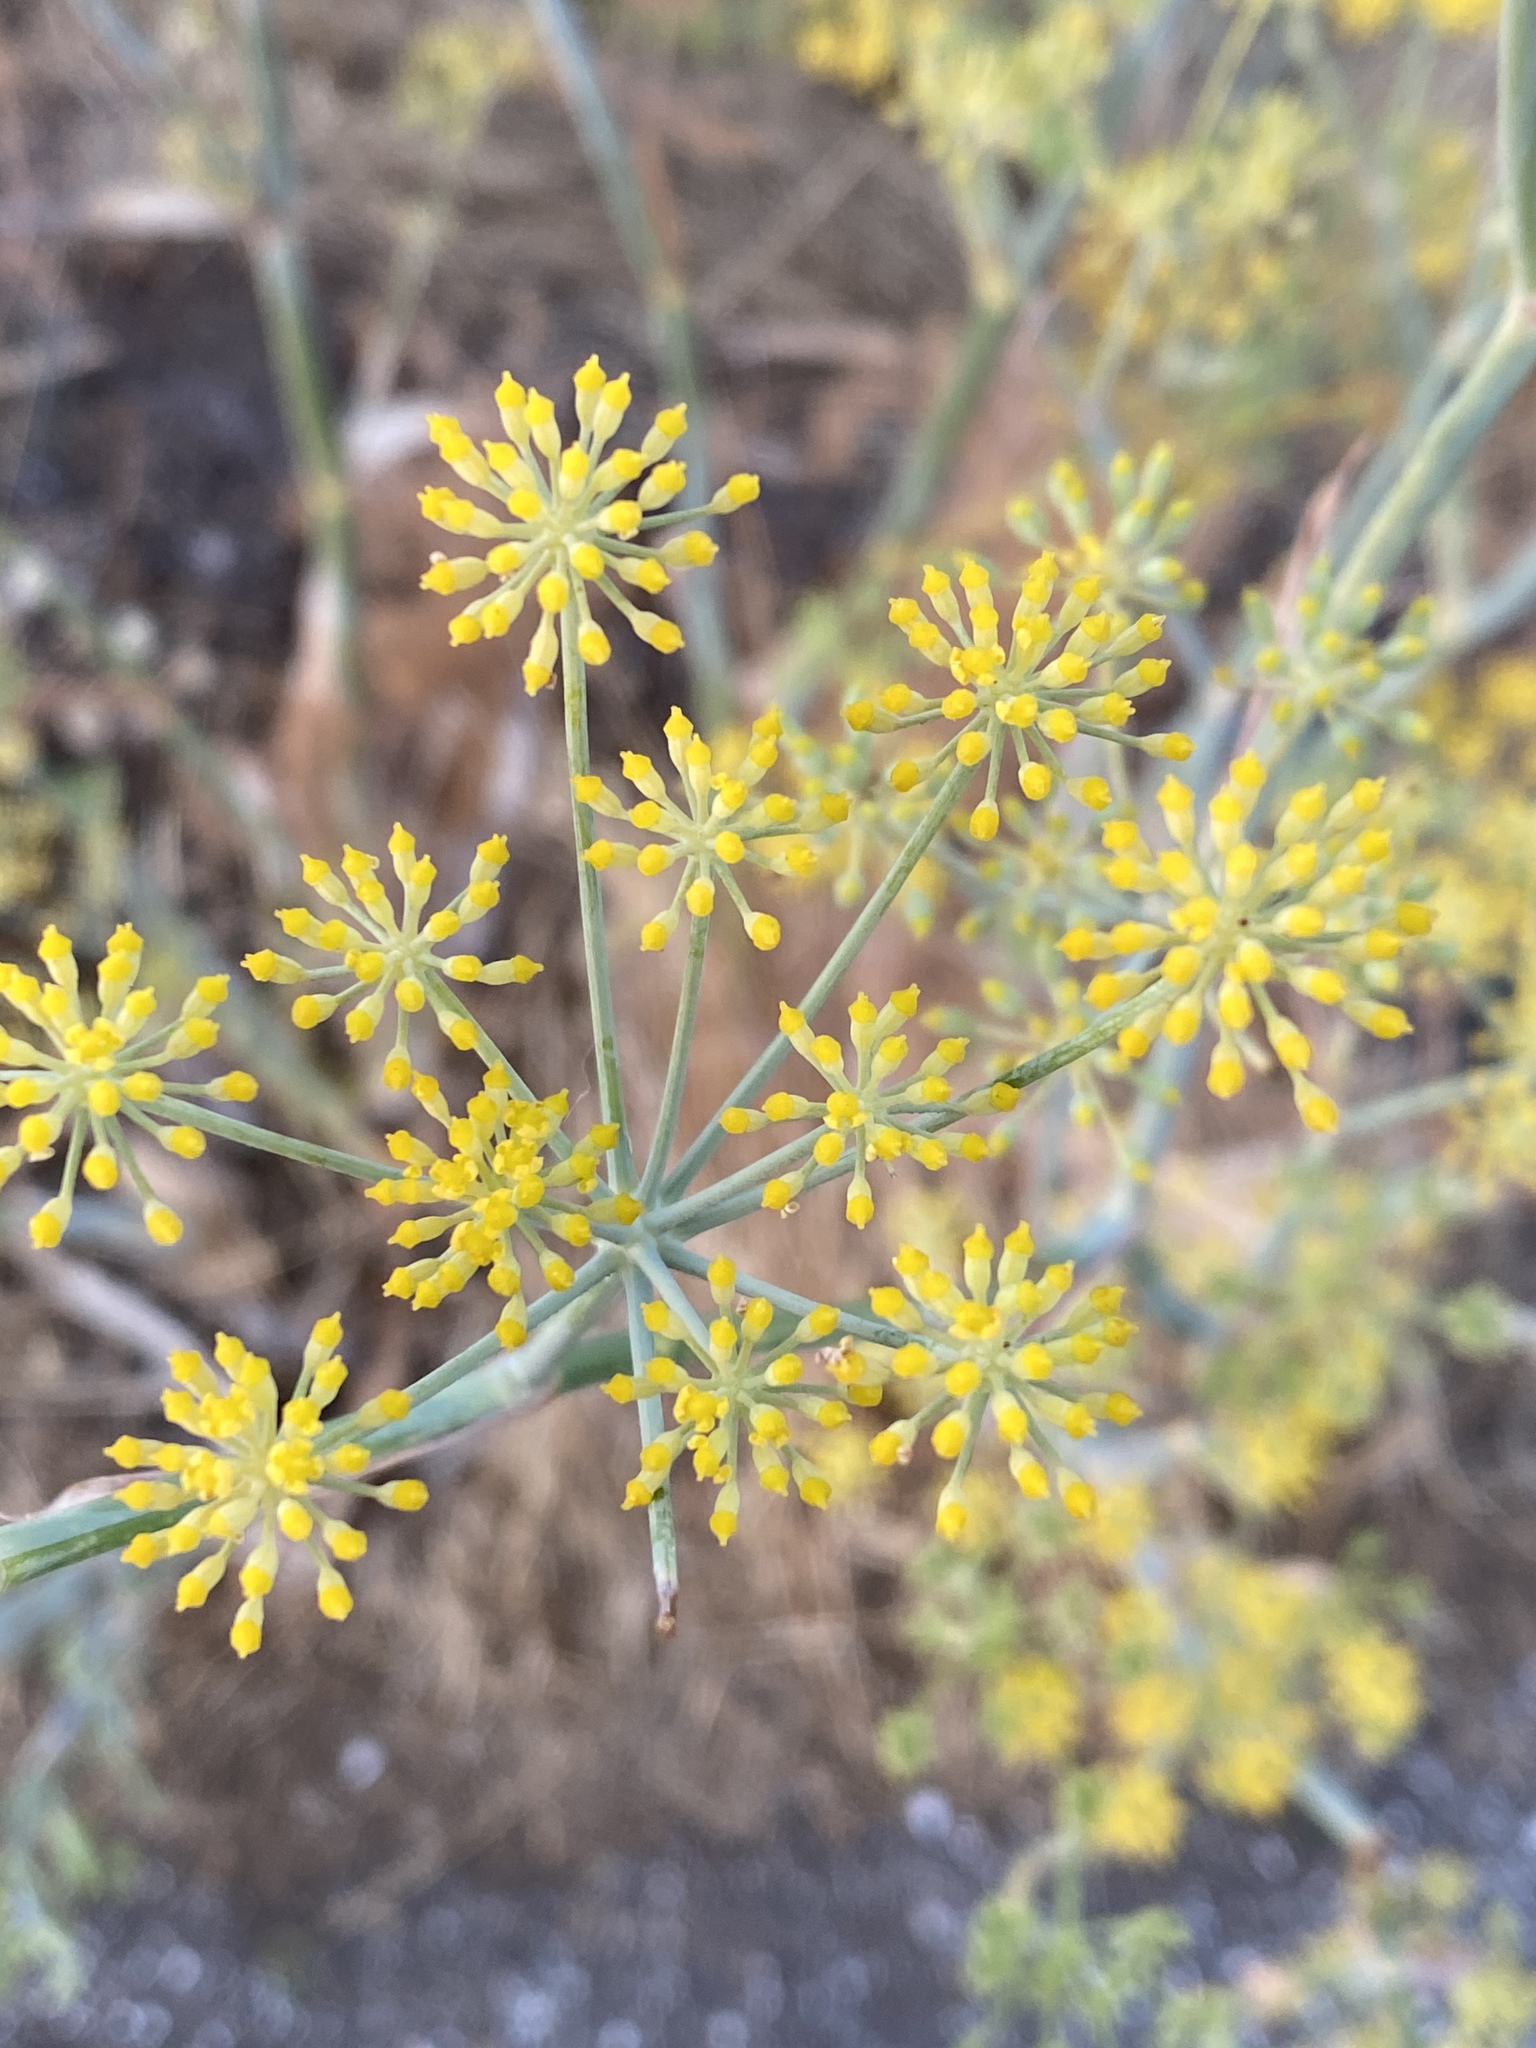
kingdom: Plantae
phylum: Tracheophyta
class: Magnoliopsida
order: Apiales
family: Apiaceae
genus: Foeniculum
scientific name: Foeniculum vulgare
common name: Fennel
